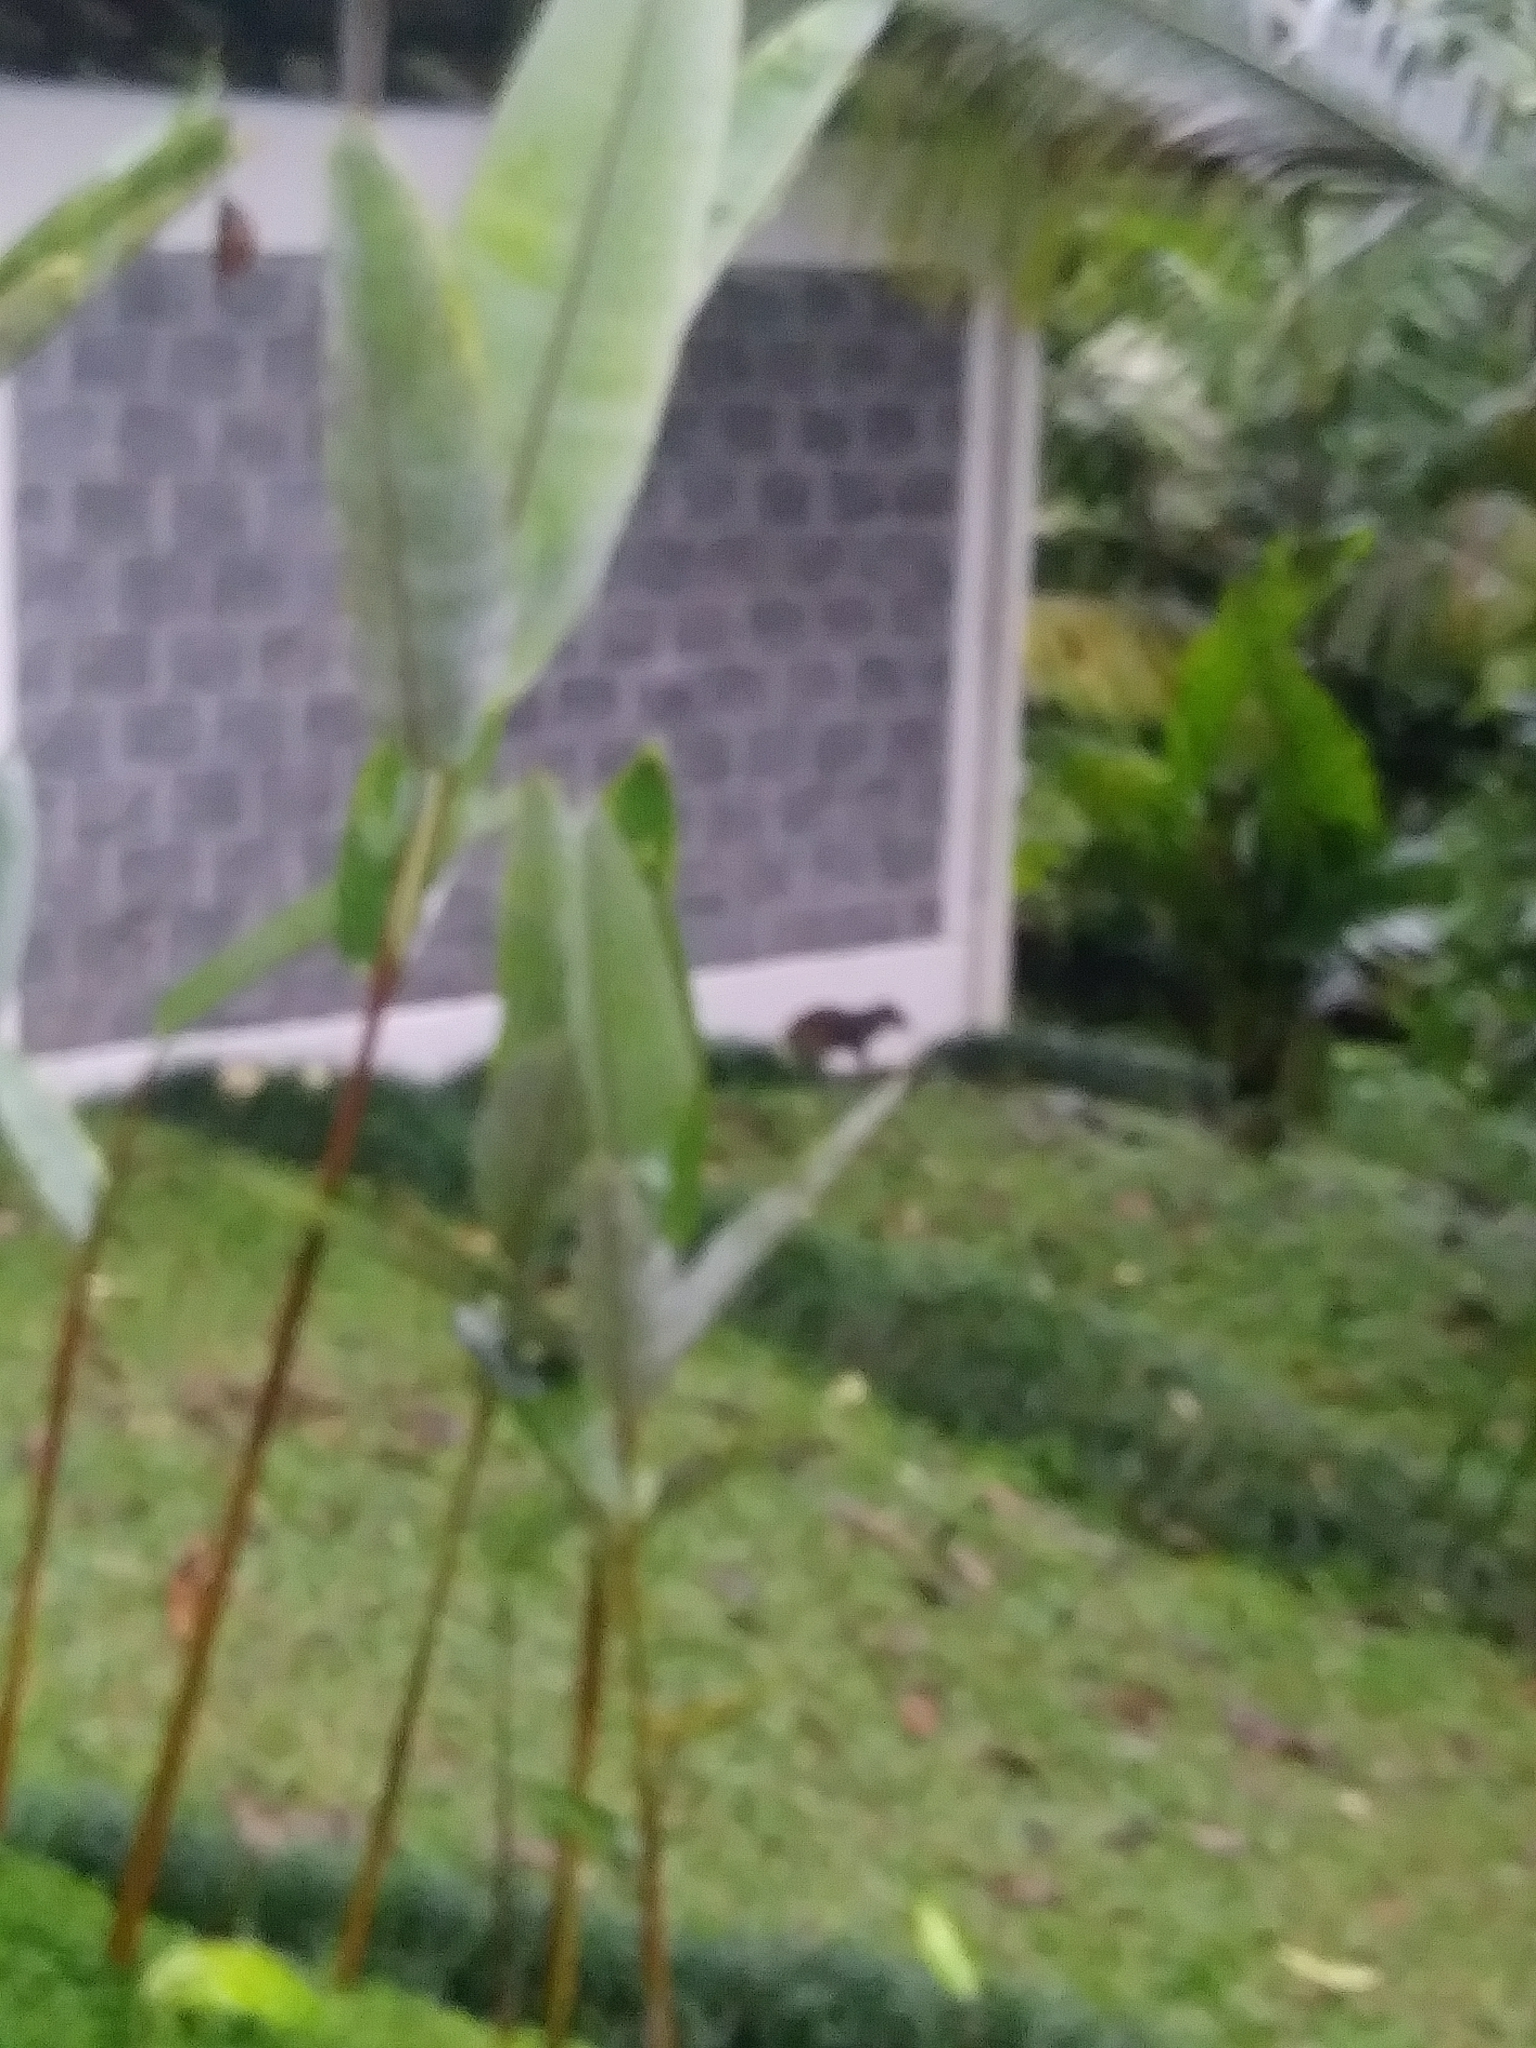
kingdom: Animalia
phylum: Chordata
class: Mammalia
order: Rodentia
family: Dasyproctidae
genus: Dasyprocta
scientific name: Dasyprocta punctata
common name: Central american agouti
